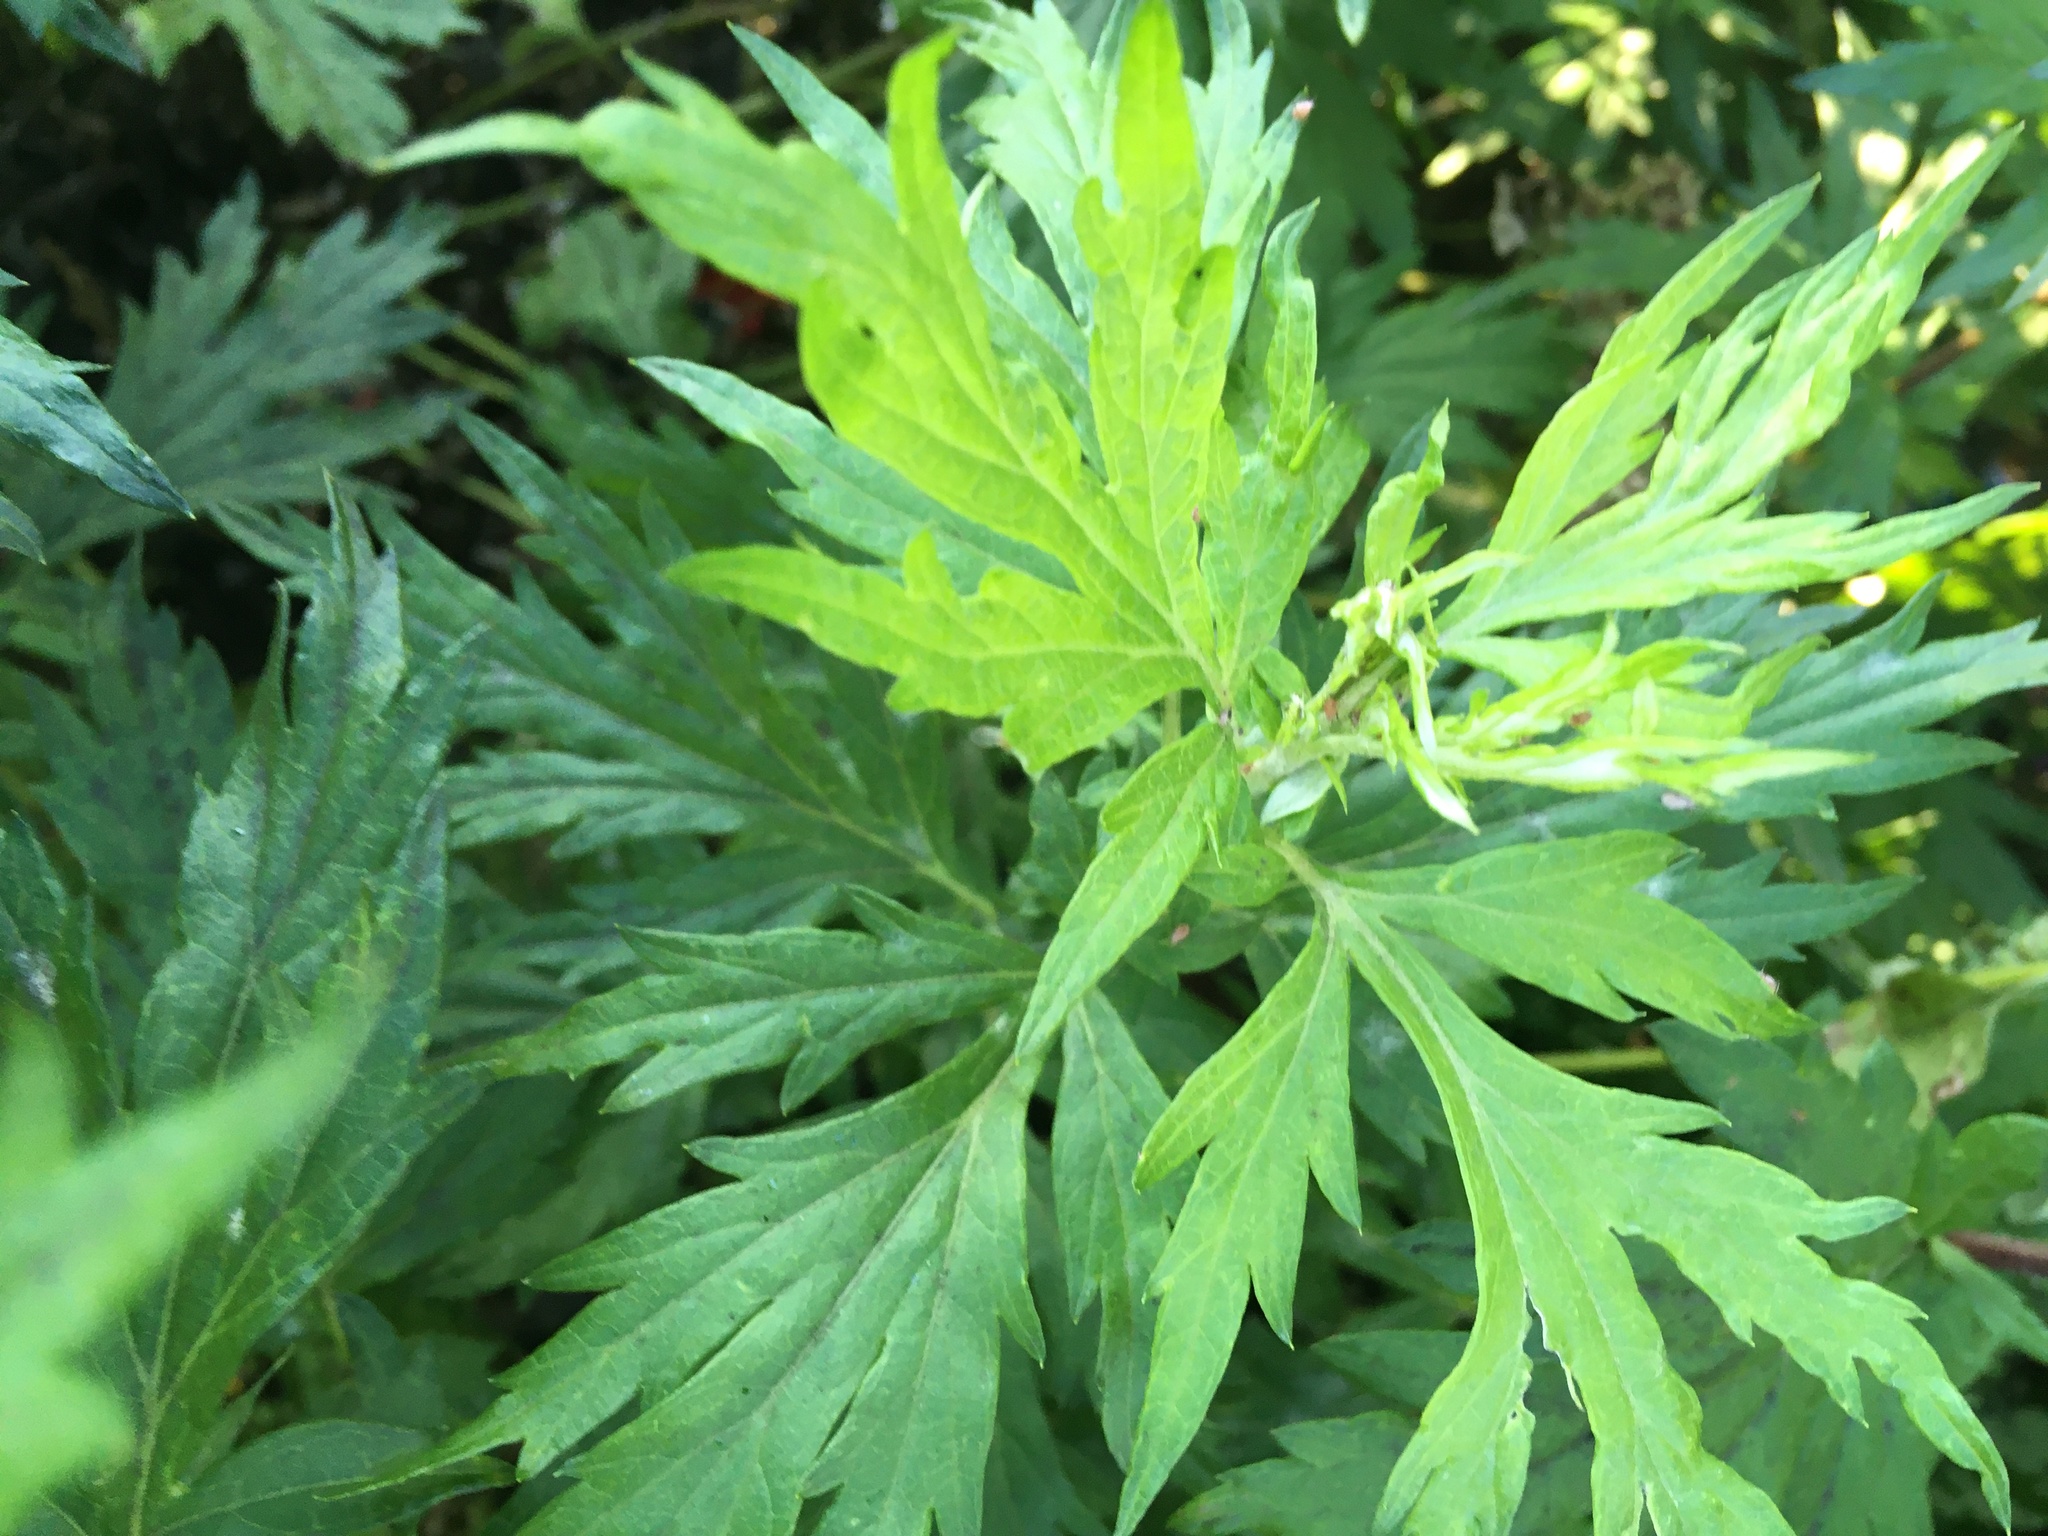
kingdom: Plantae
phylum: Tracheophyta
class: Magnoliopsida
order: Asterales
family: Asteraceae
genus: Artemisia
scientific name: Artemisia vulgaris
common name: Mugwort
